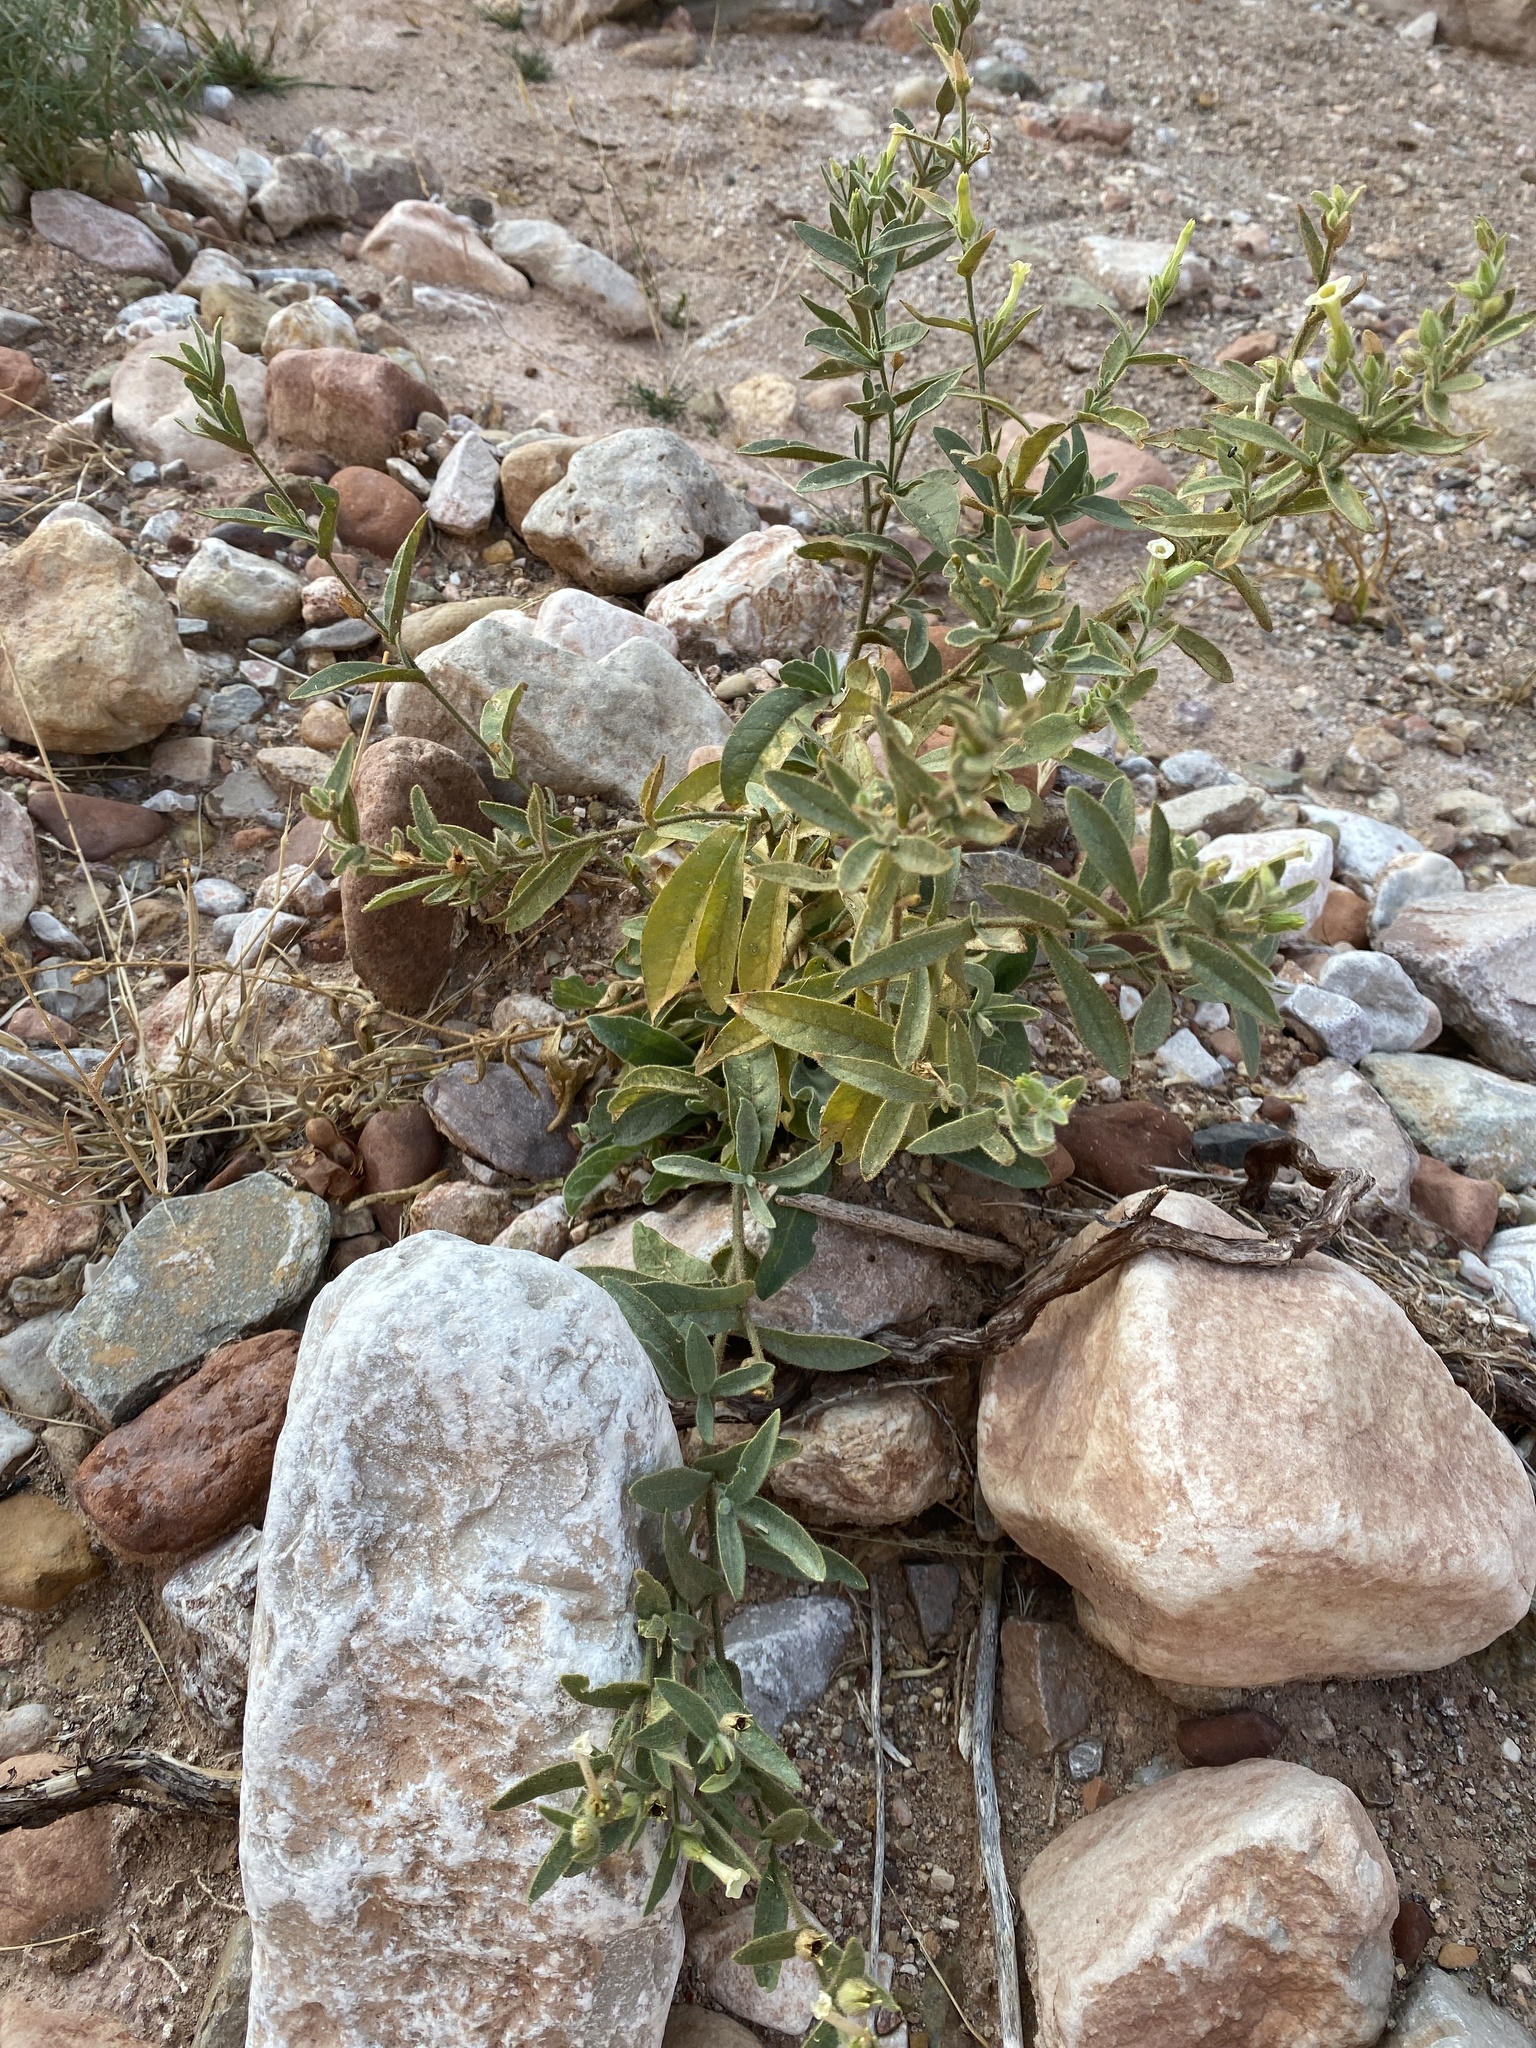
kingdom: Plantae
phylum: Tracheophyta
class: Magnoliopsida
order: Solanales
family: Solanaceae
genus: Nicotiana
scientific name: Nicotiana obtusifolia
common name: Desert tobacco
